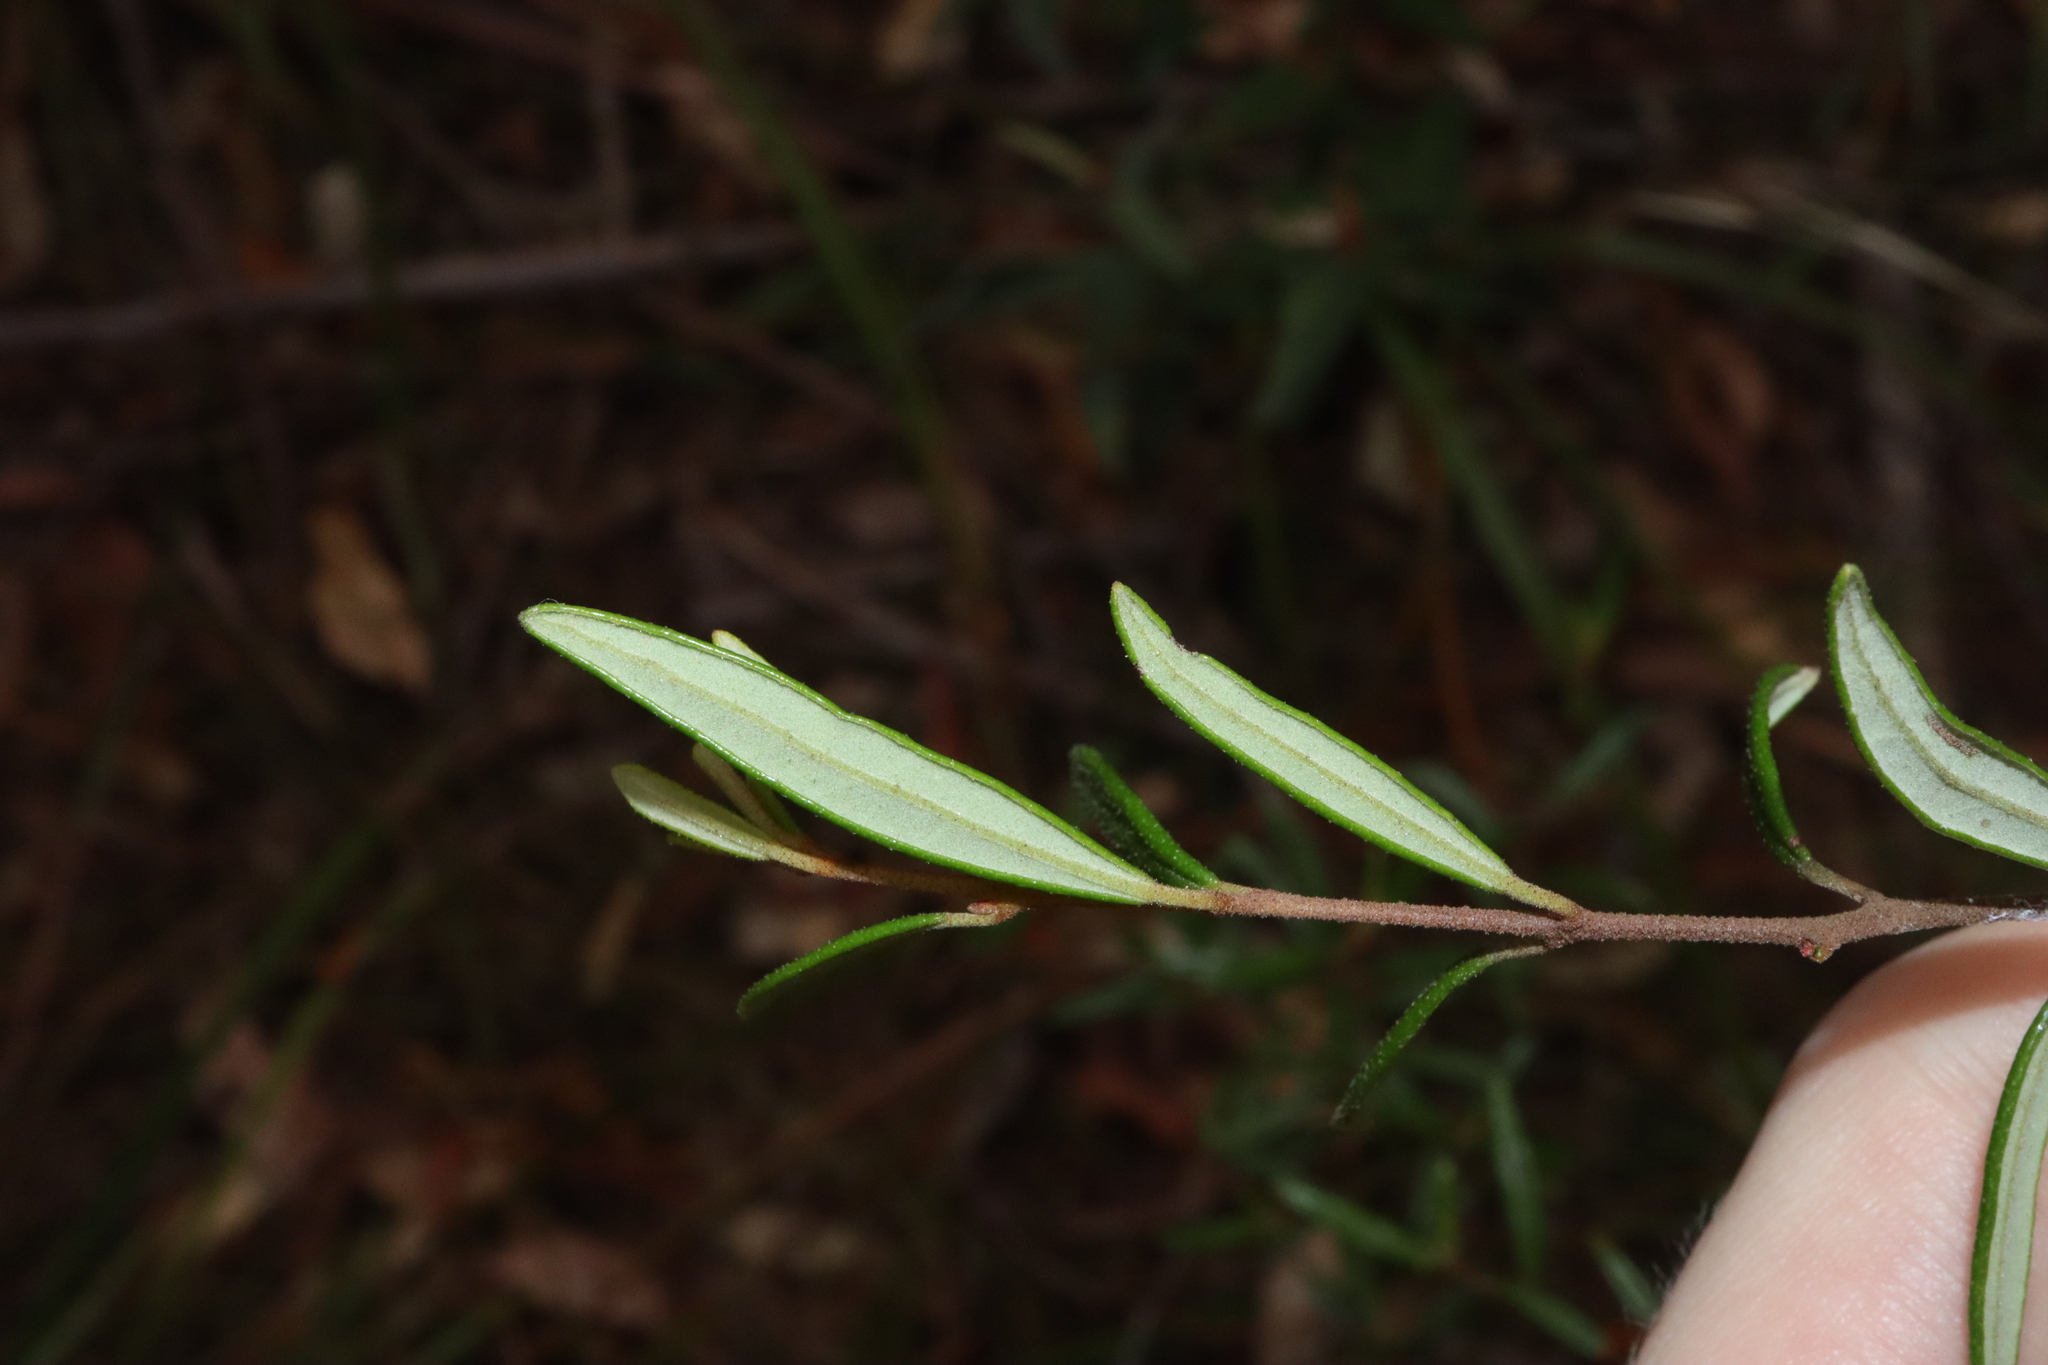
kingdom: Plantae
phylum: Tracheophyta
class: Magnoliopsida
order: Sapindales
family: Rutaceae
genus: Boronia
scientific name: Boronia ledifolia
